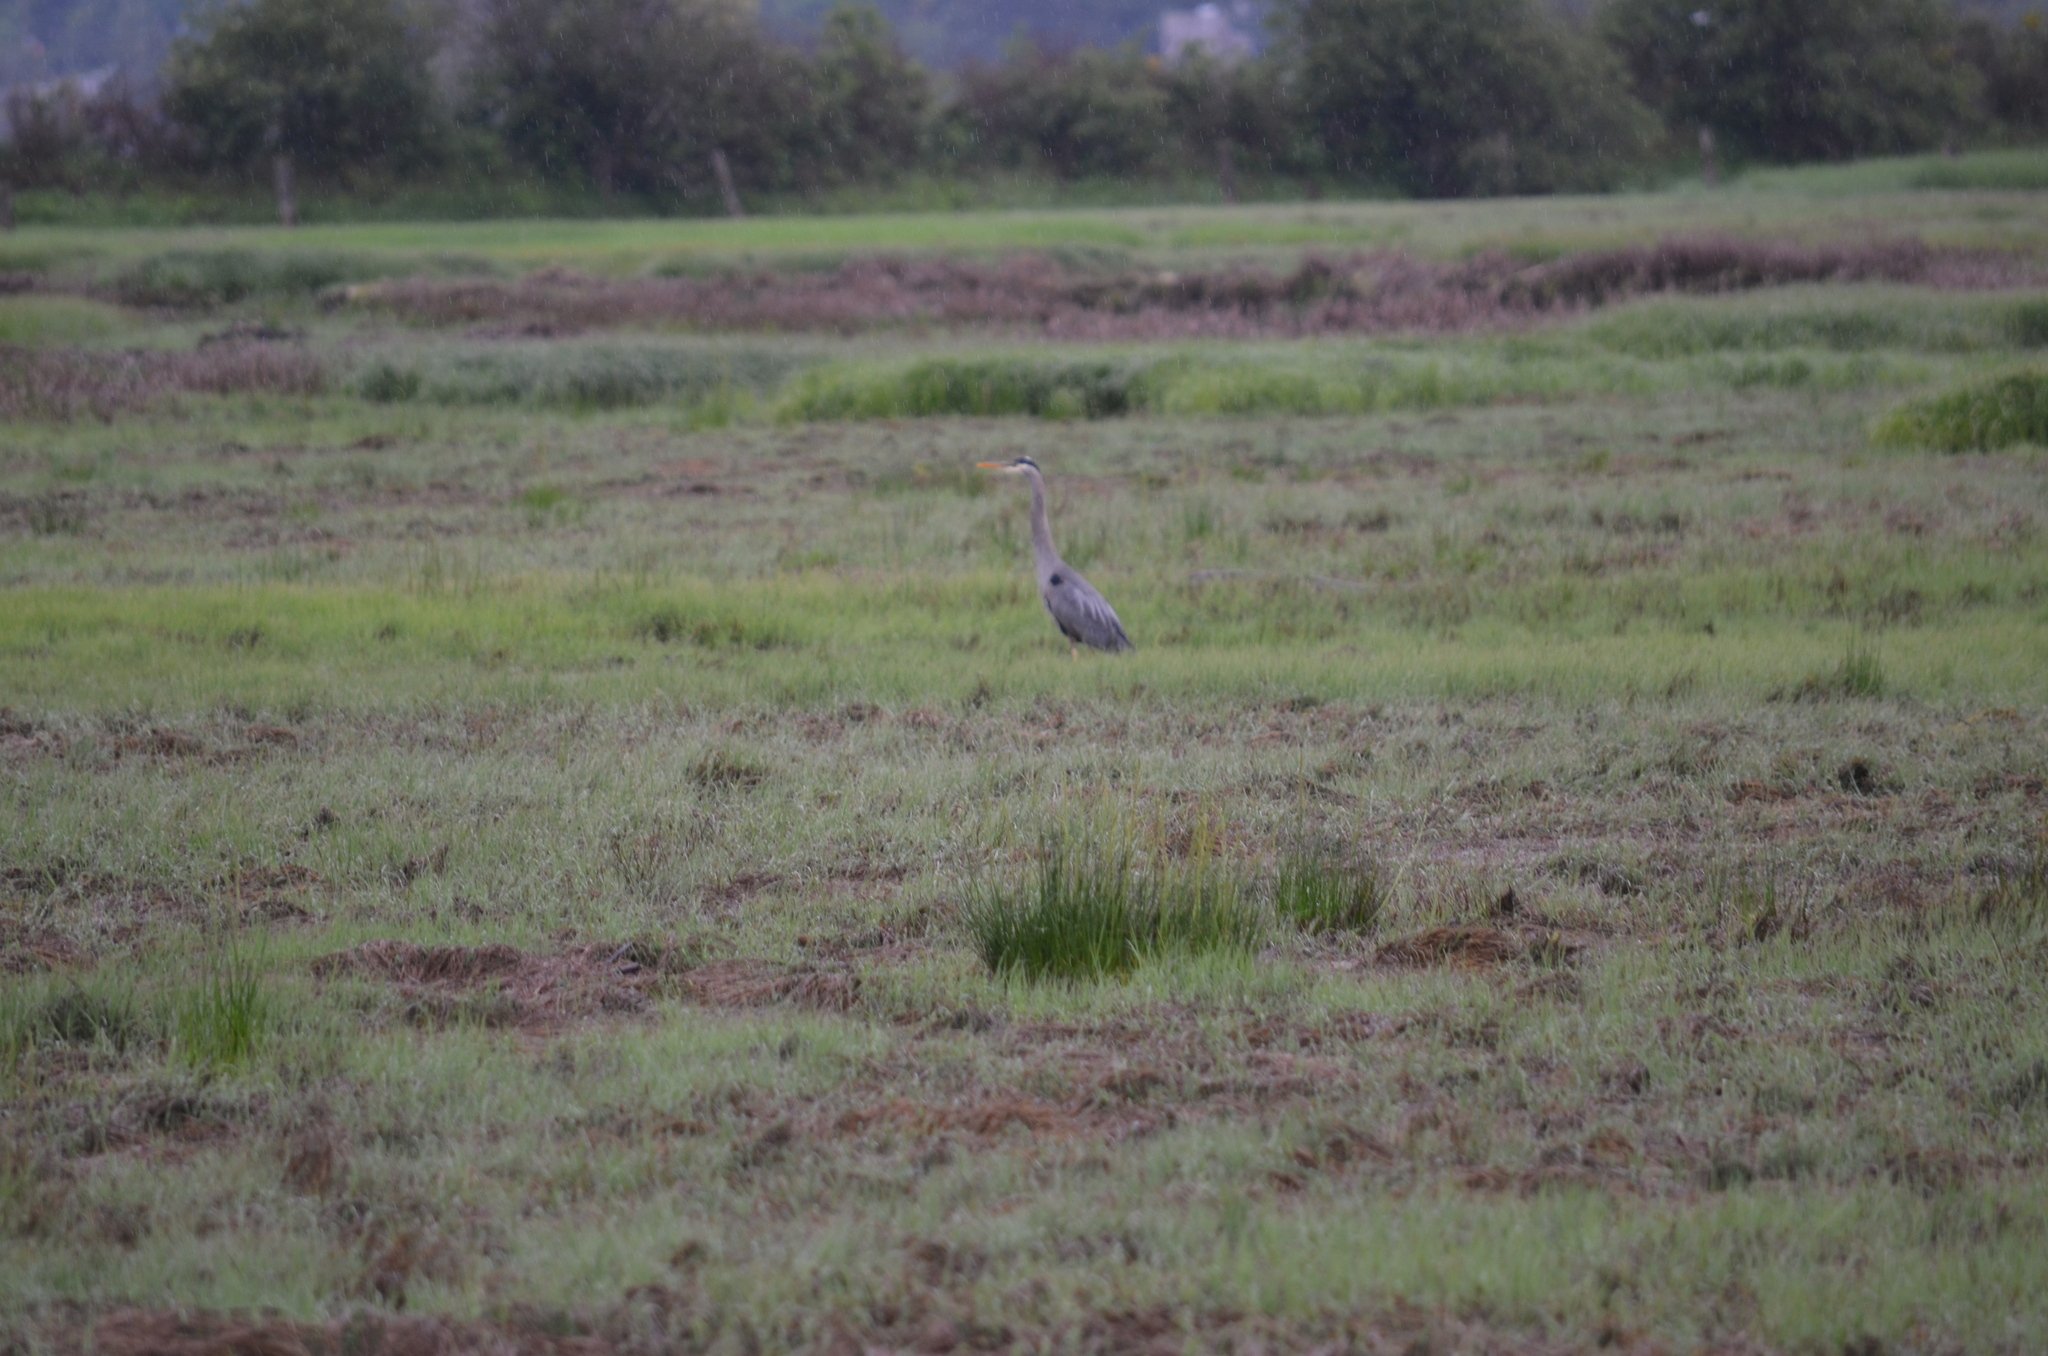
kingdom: Animalia
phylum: Chordata
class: Aves
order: Pelecaniformes
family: Ardeidae
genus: Ardea
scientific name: Ardea herodias
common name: Great blue heron
